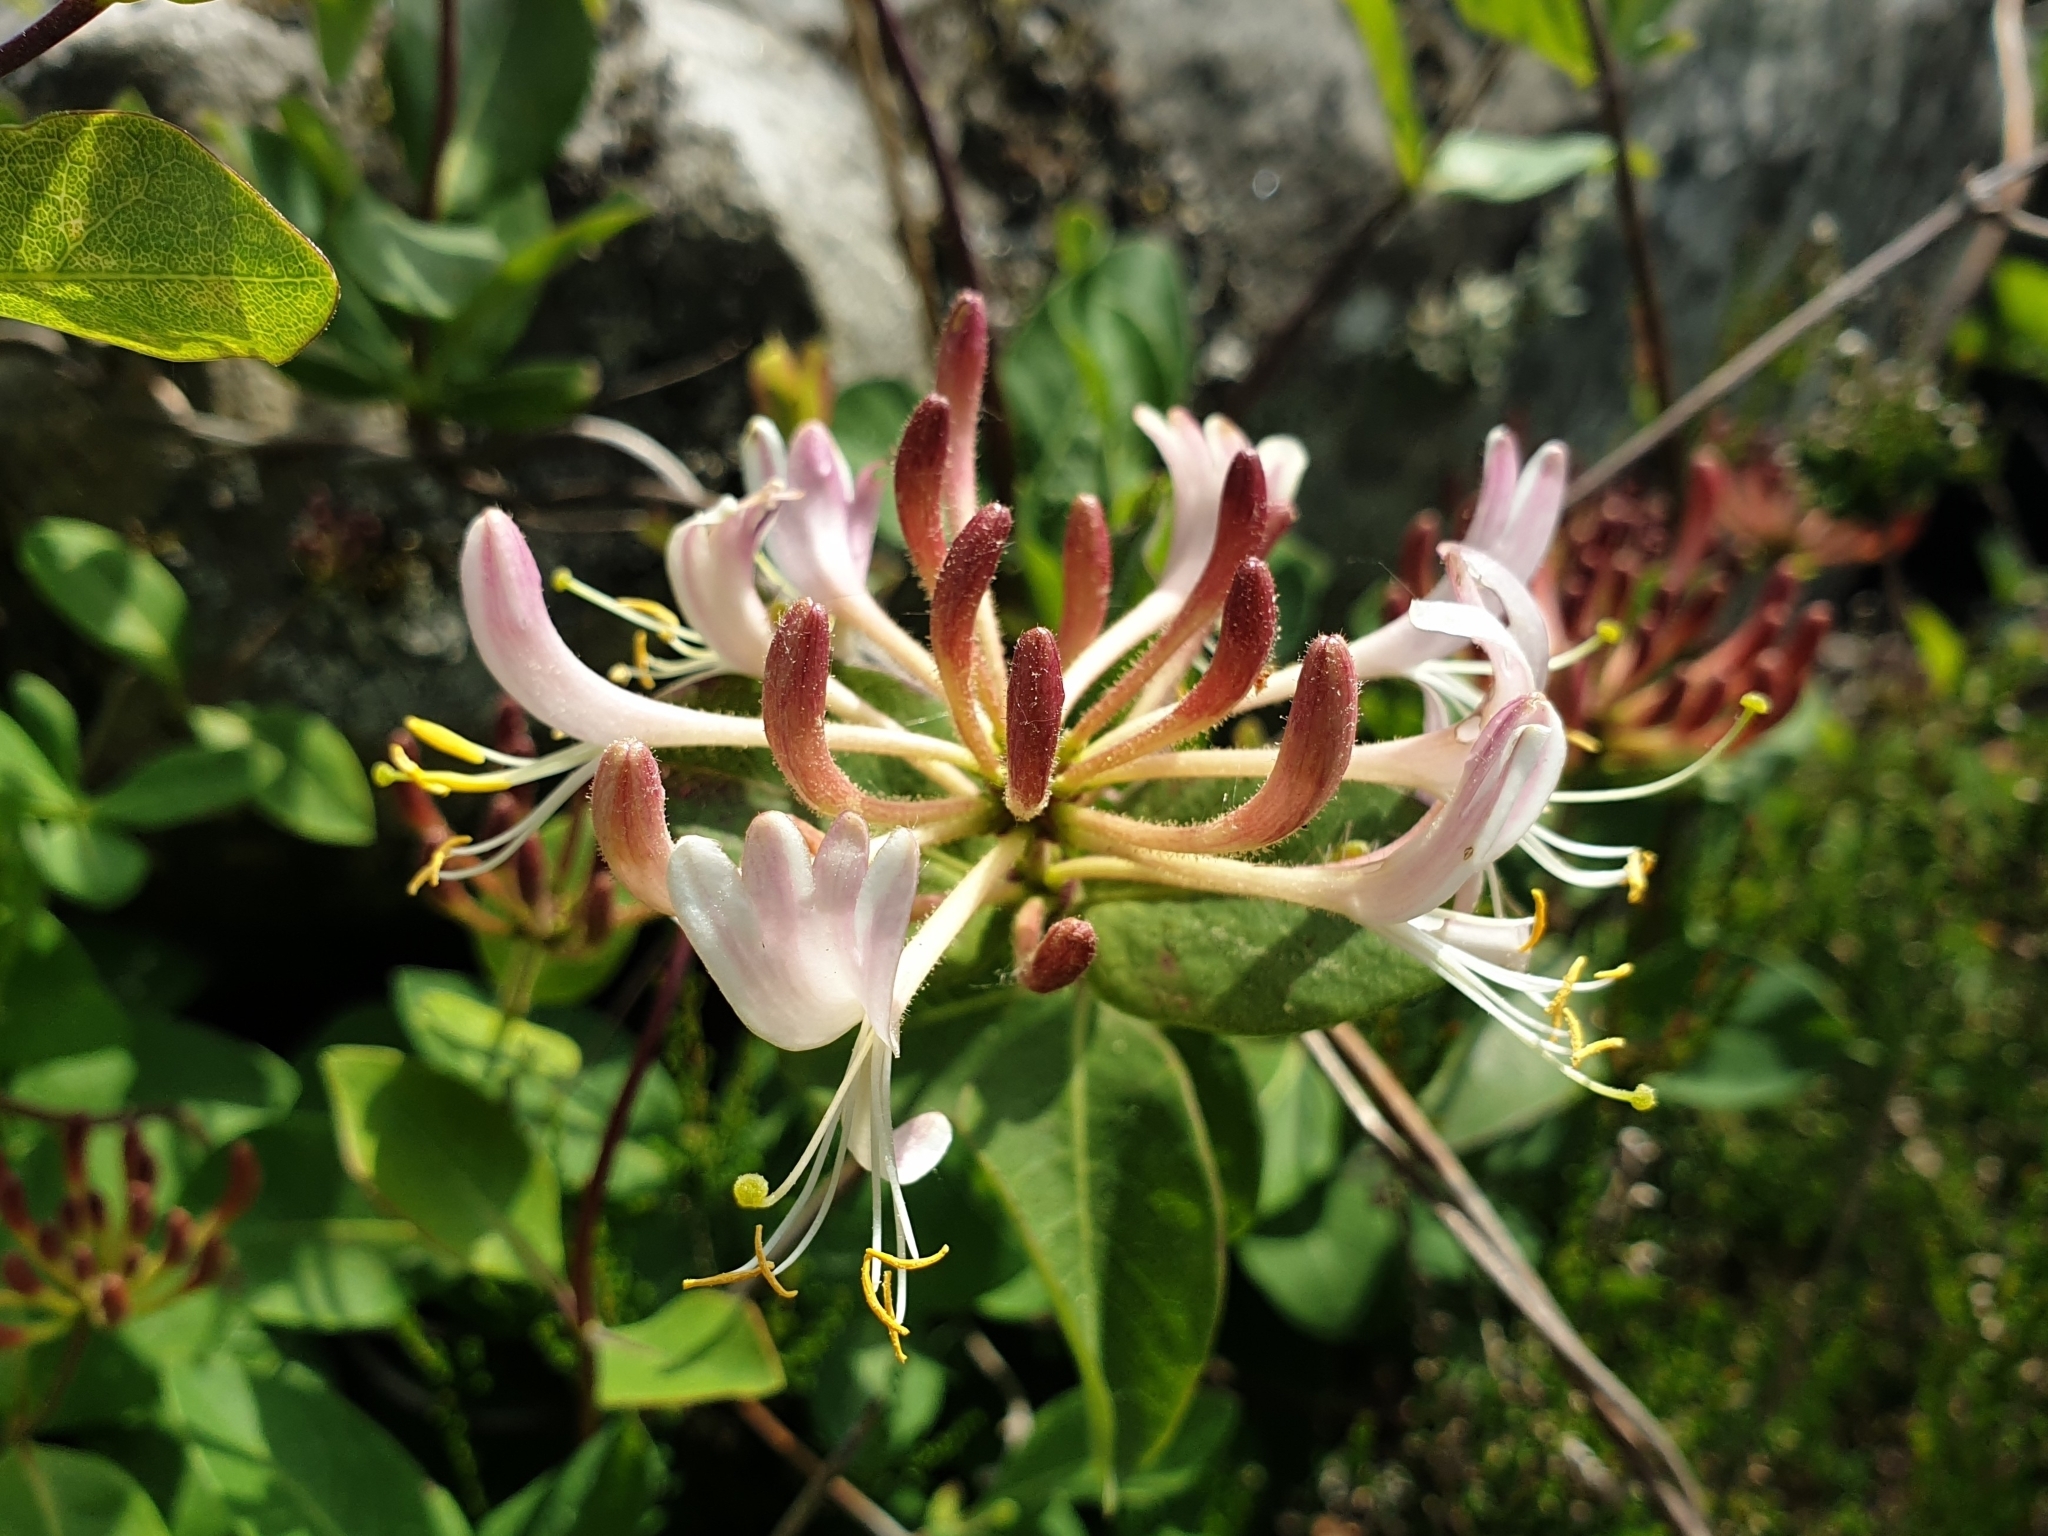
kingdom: Plantae
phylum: Tracheophyta
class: Magnoliopsida
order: Dipsacales
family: Caprifoliaceae
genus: Lonicera
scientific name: Lonicera periclymenum
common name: European honeysuckle
